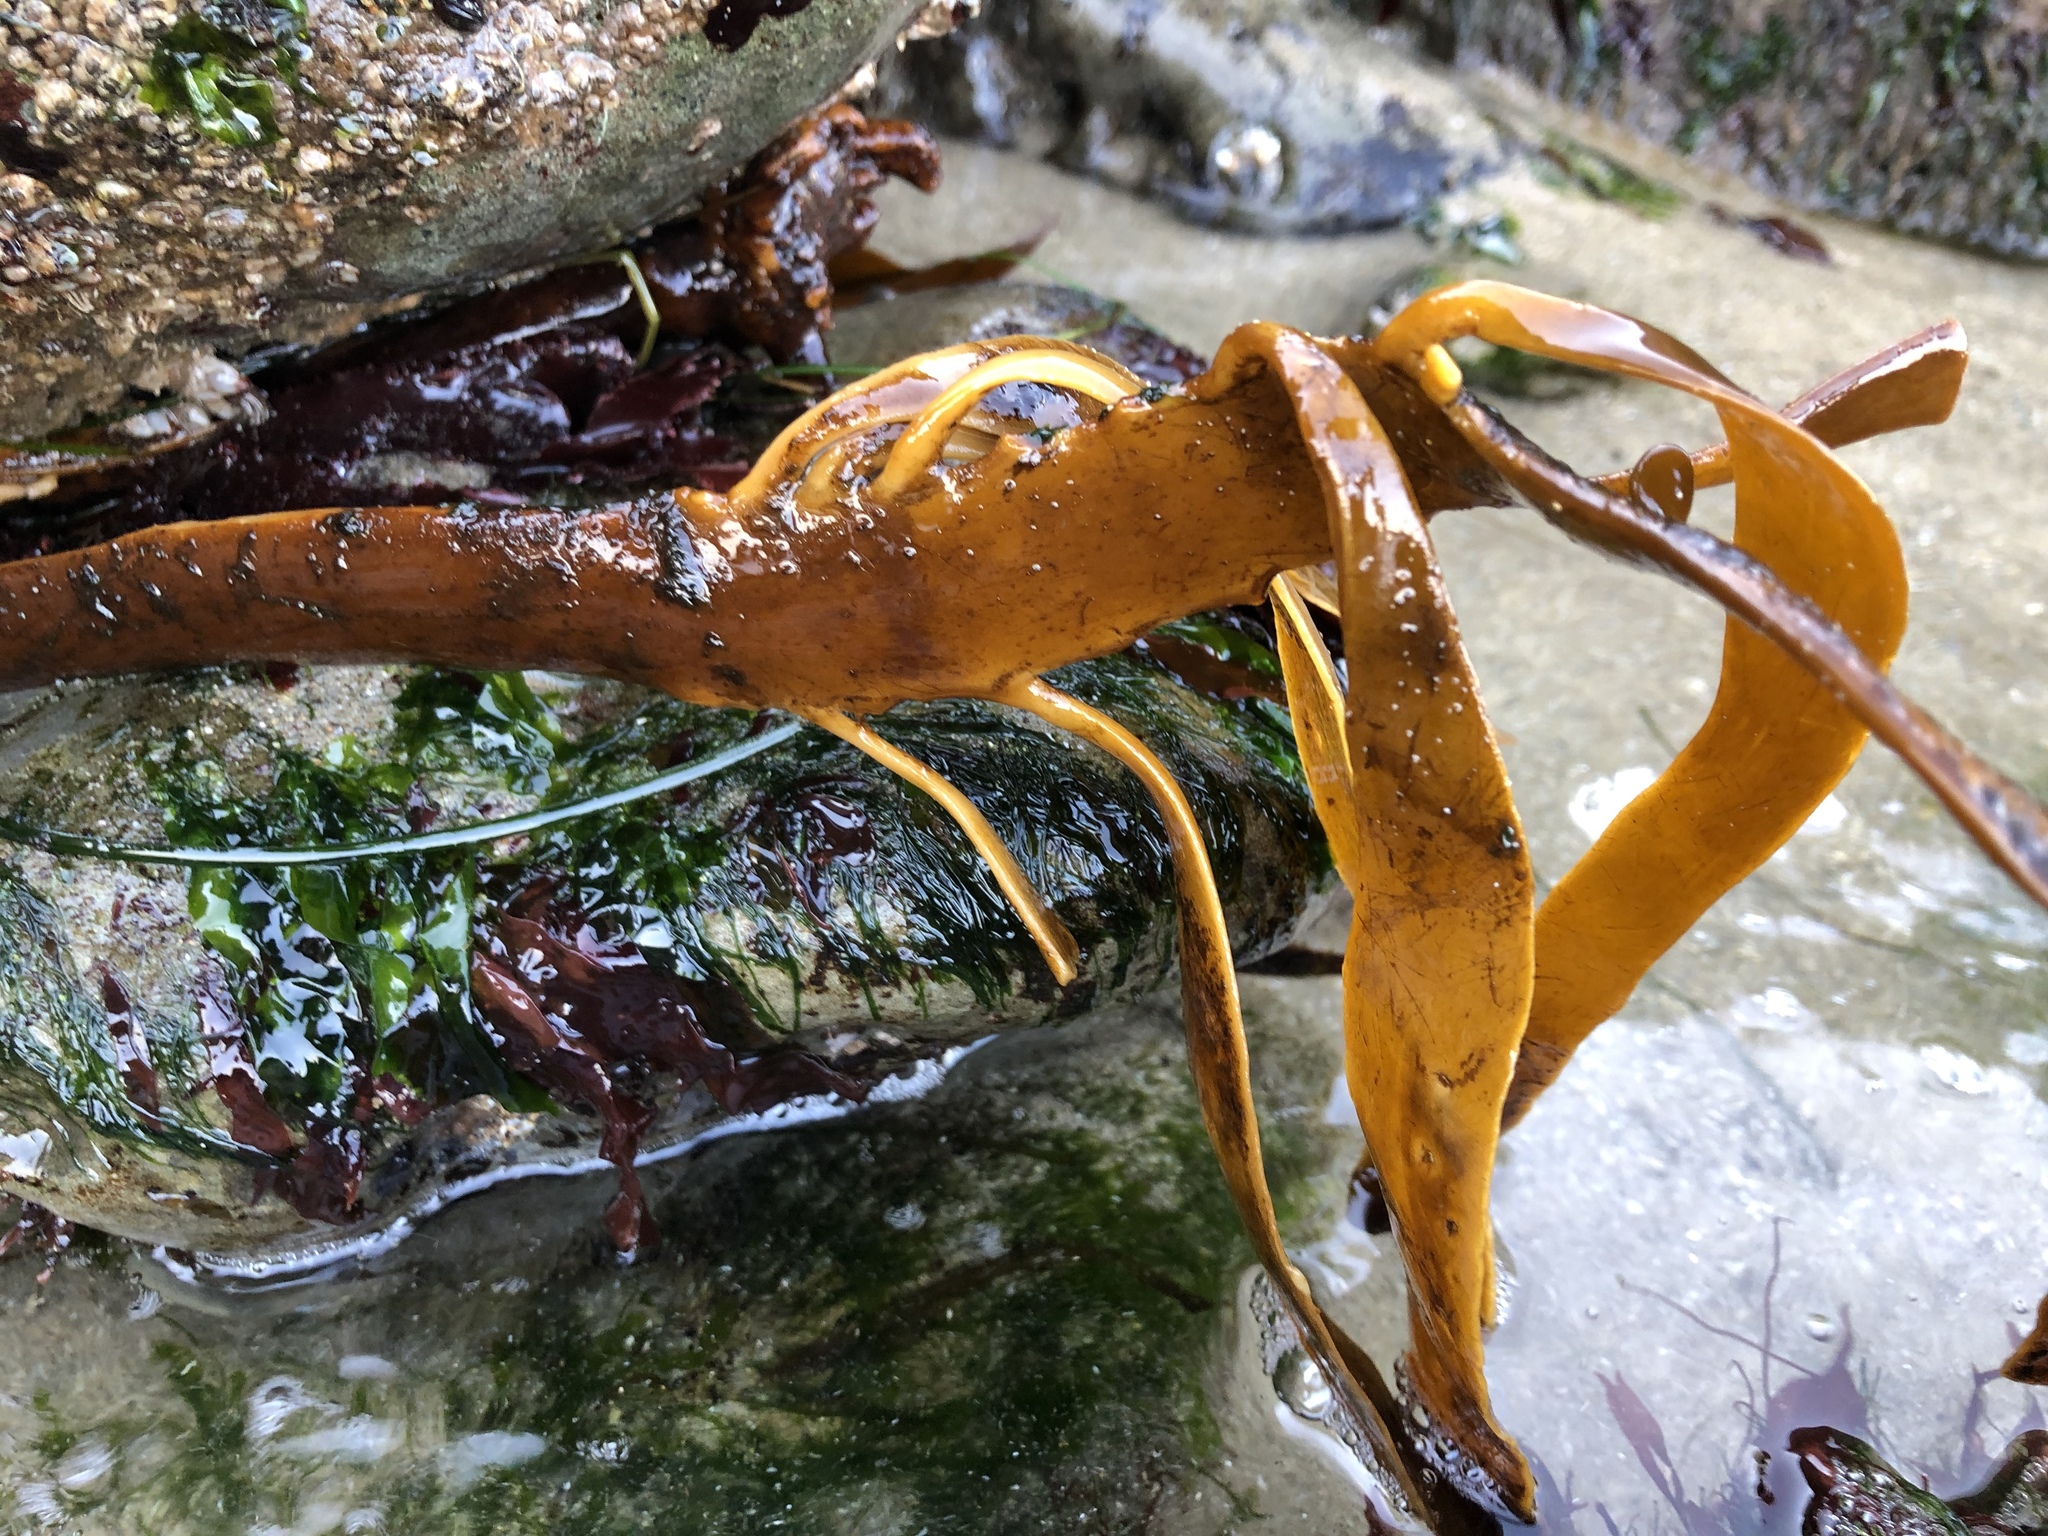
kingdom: Chromista
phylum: Ochrophyta
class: Phaeophyceae
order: Laminariales
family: Alariaceae
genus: Pterygophora
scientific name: Pterygophora californica
